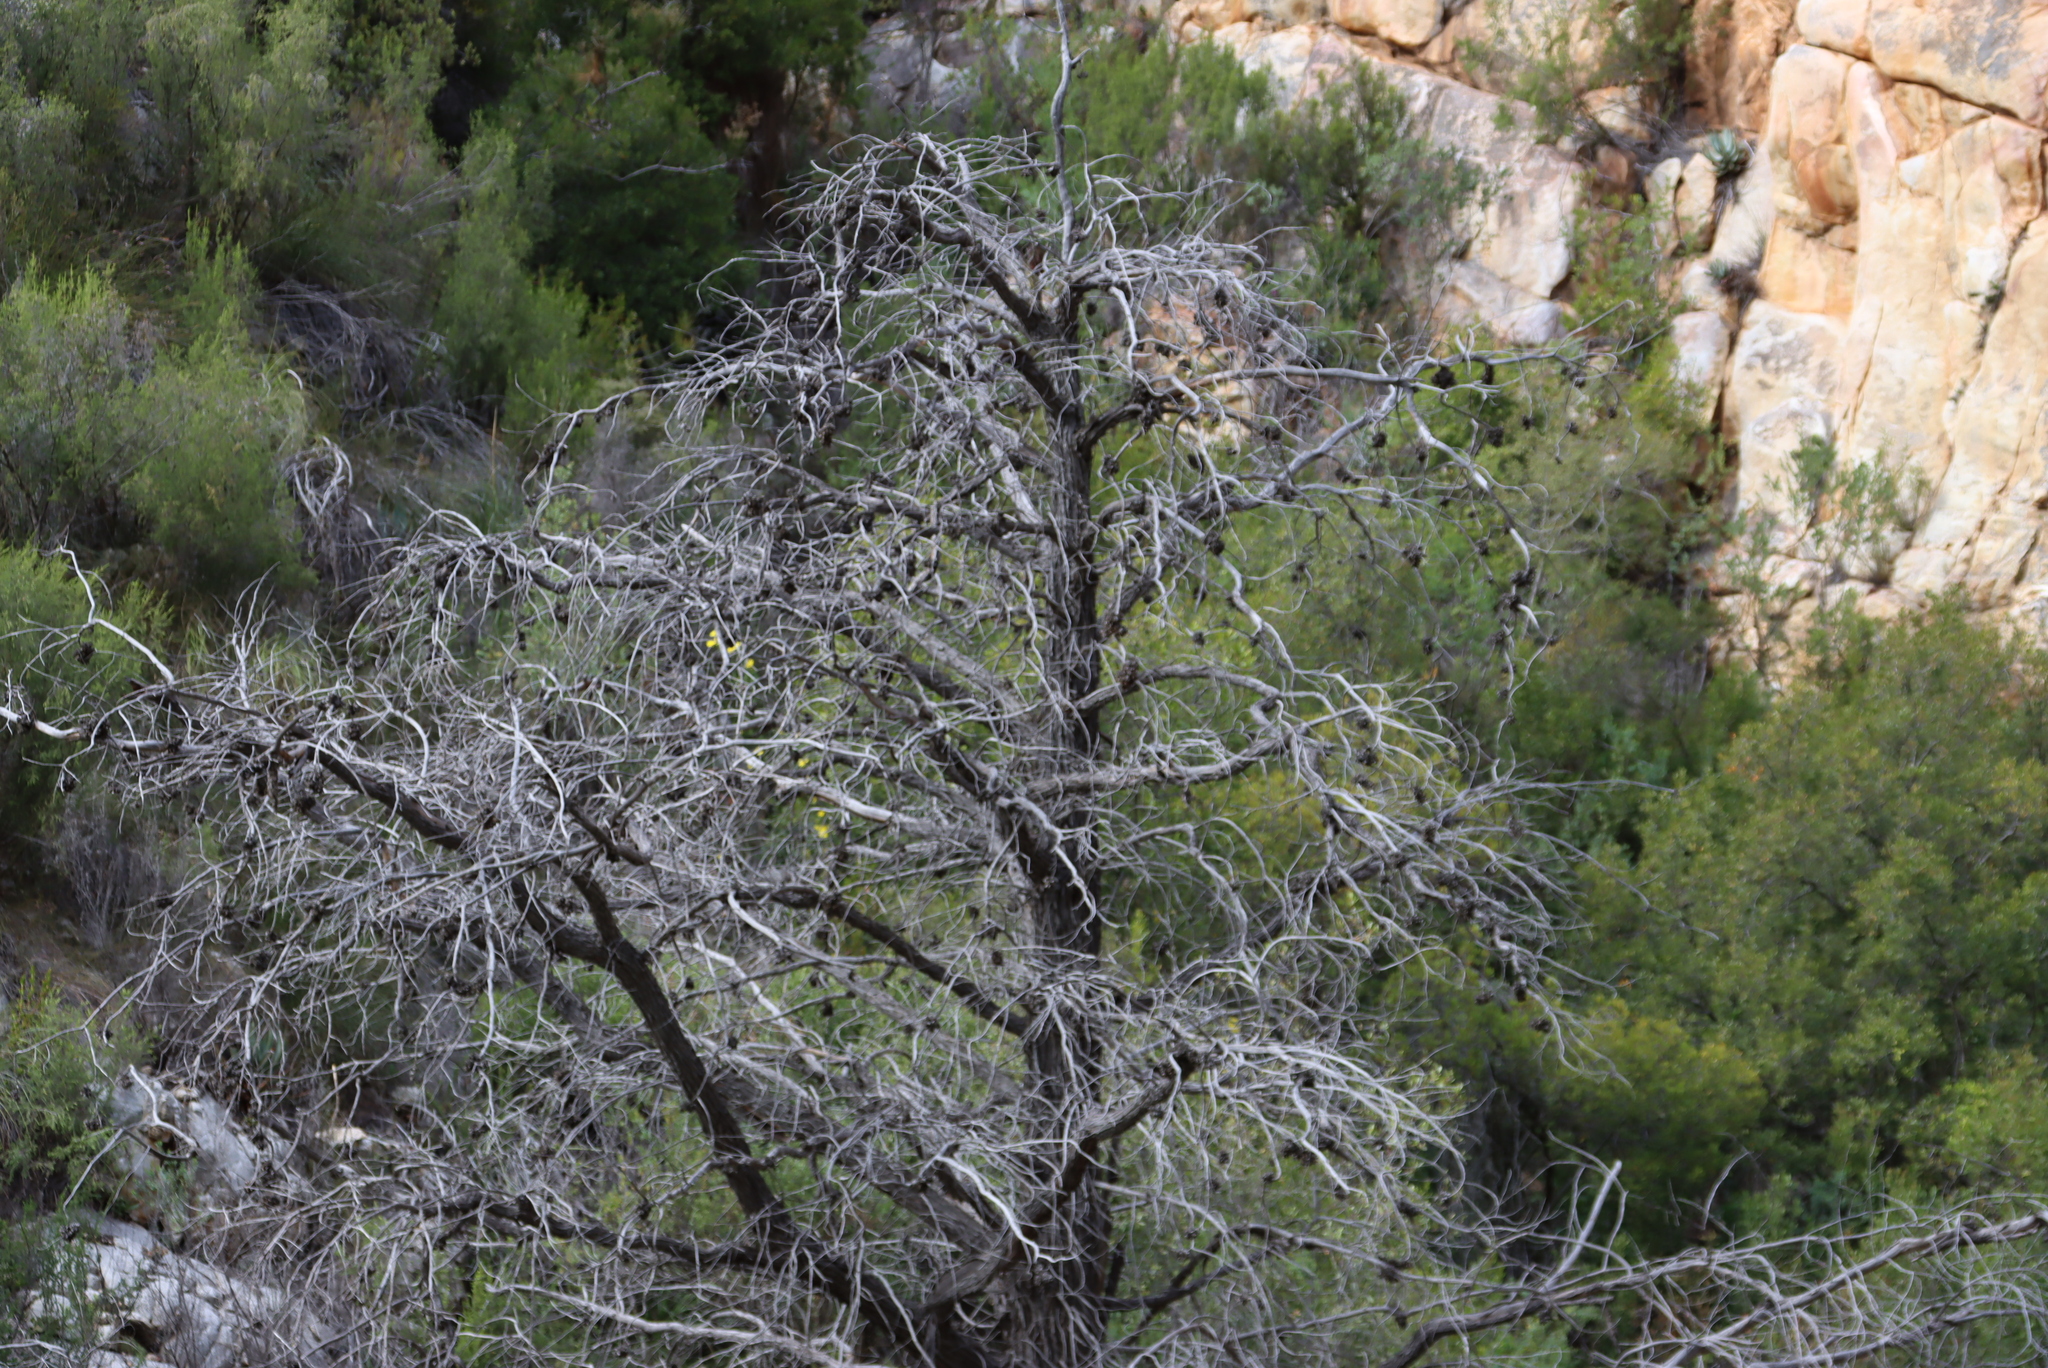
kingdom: Plantae
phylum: Tracheophyta
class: Pinopsida
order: Pinales
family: Cupressaceae
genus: Widdringtonia
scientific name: Widdringtonia schwarzii
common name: Baviaans cedar
